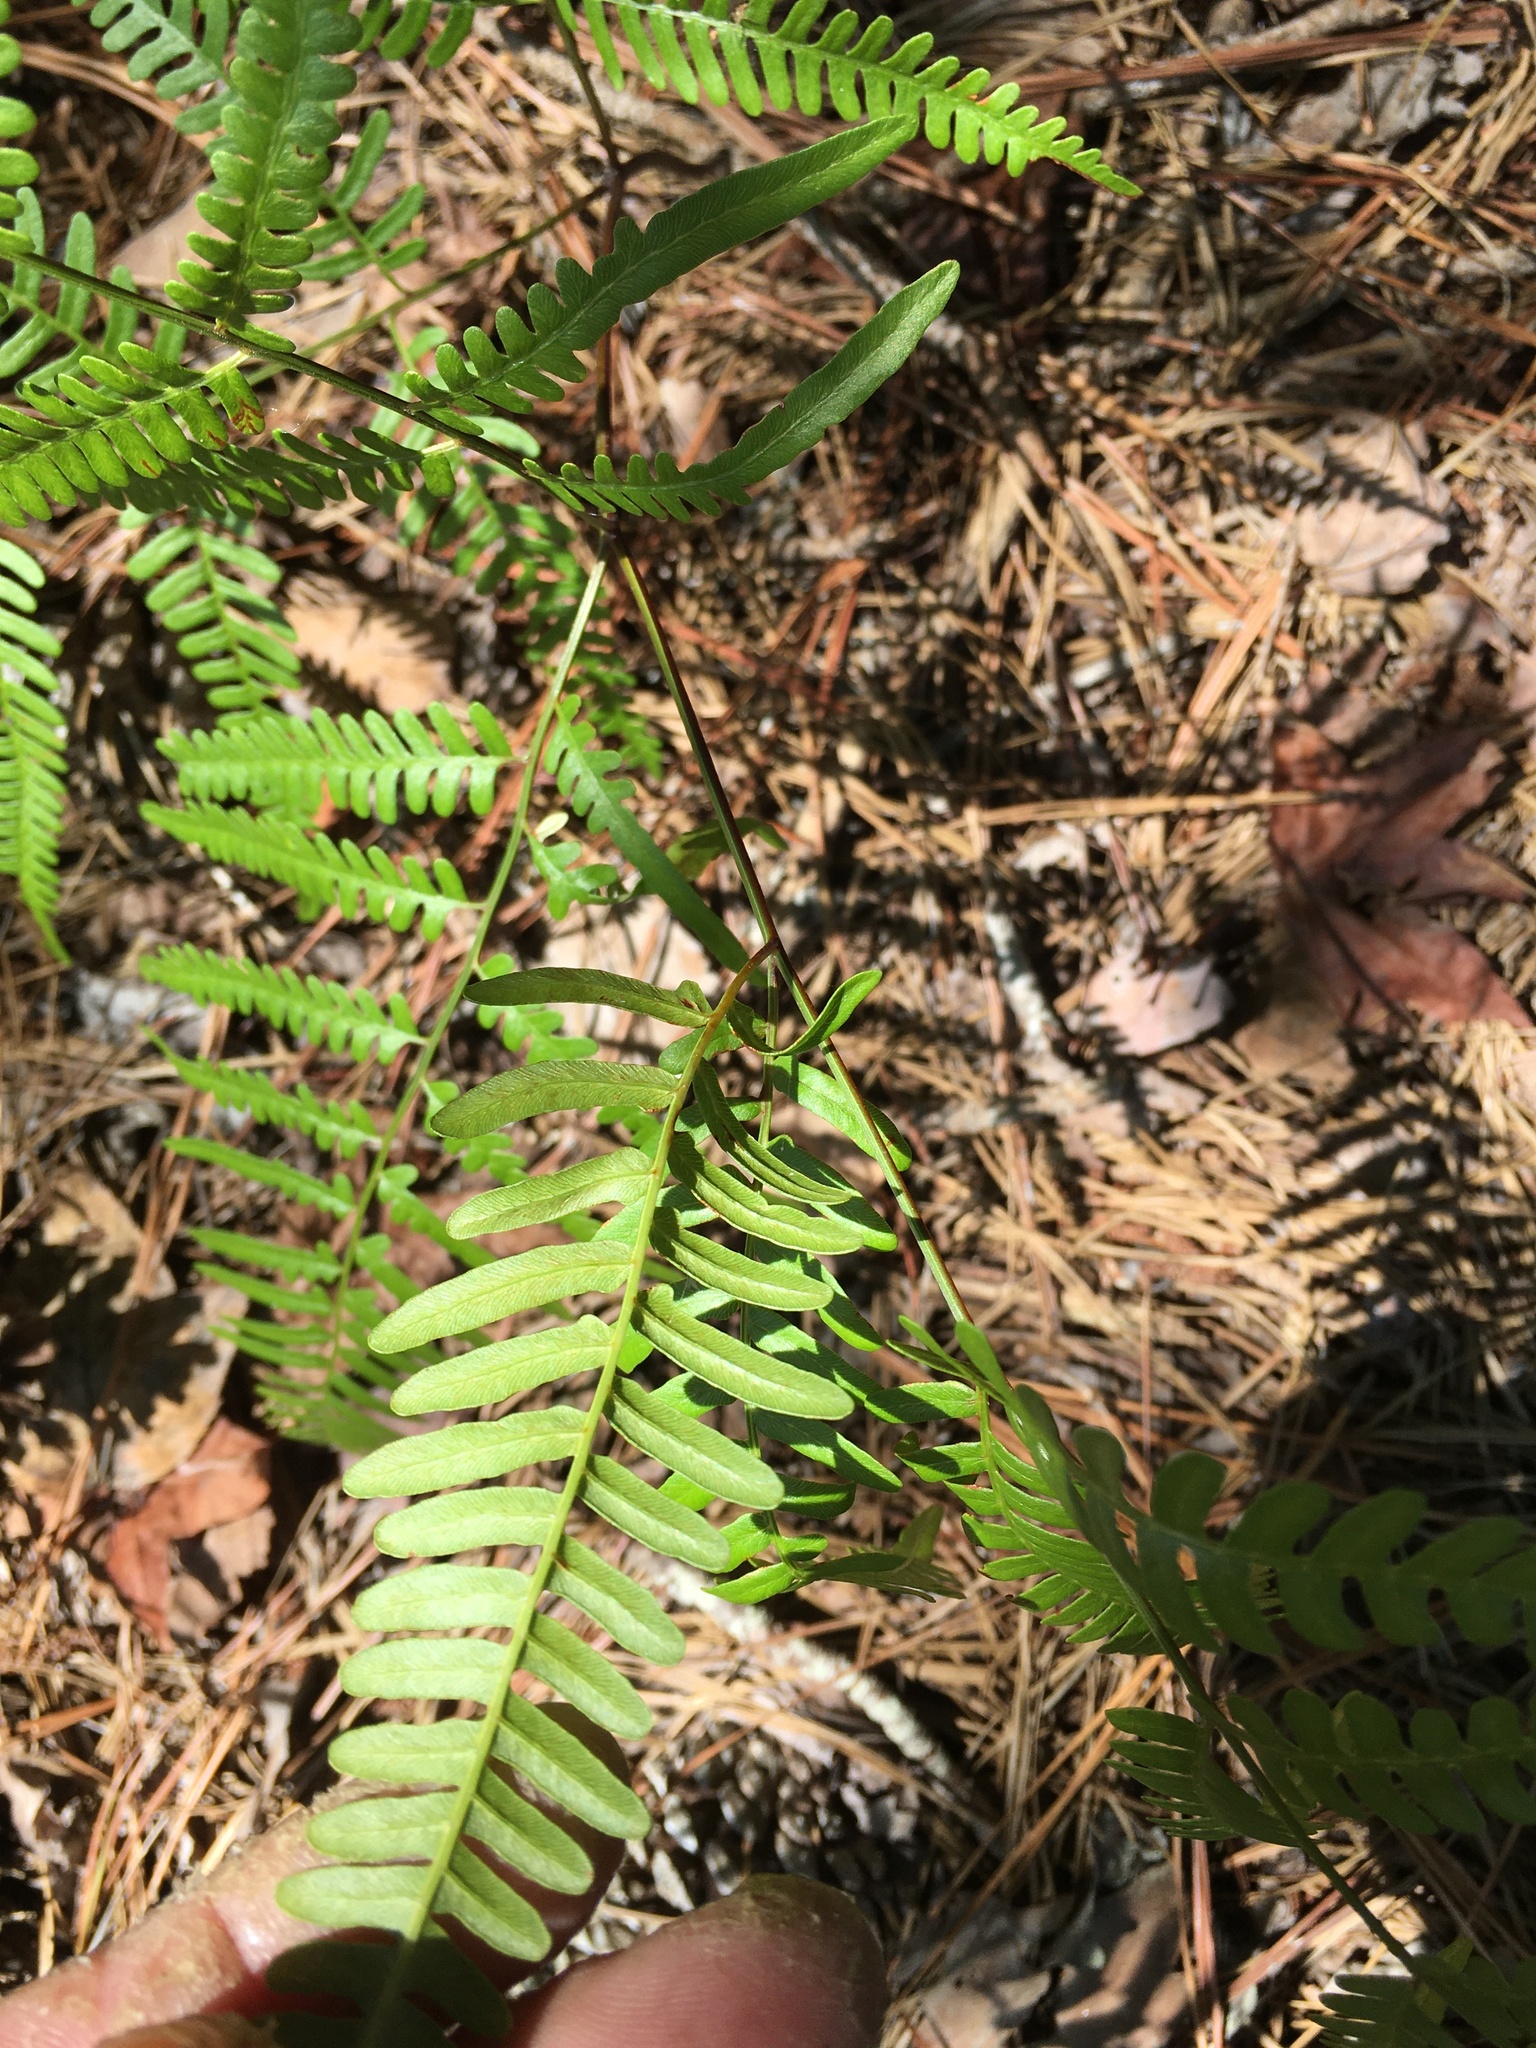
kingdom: Plantae
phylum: Tracheophyta
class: Polypodiopsida
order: Polypodiales
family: Dennstaedtiaceae
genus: Pteridium
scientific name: Pteridium aquilinum
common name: Bracken
